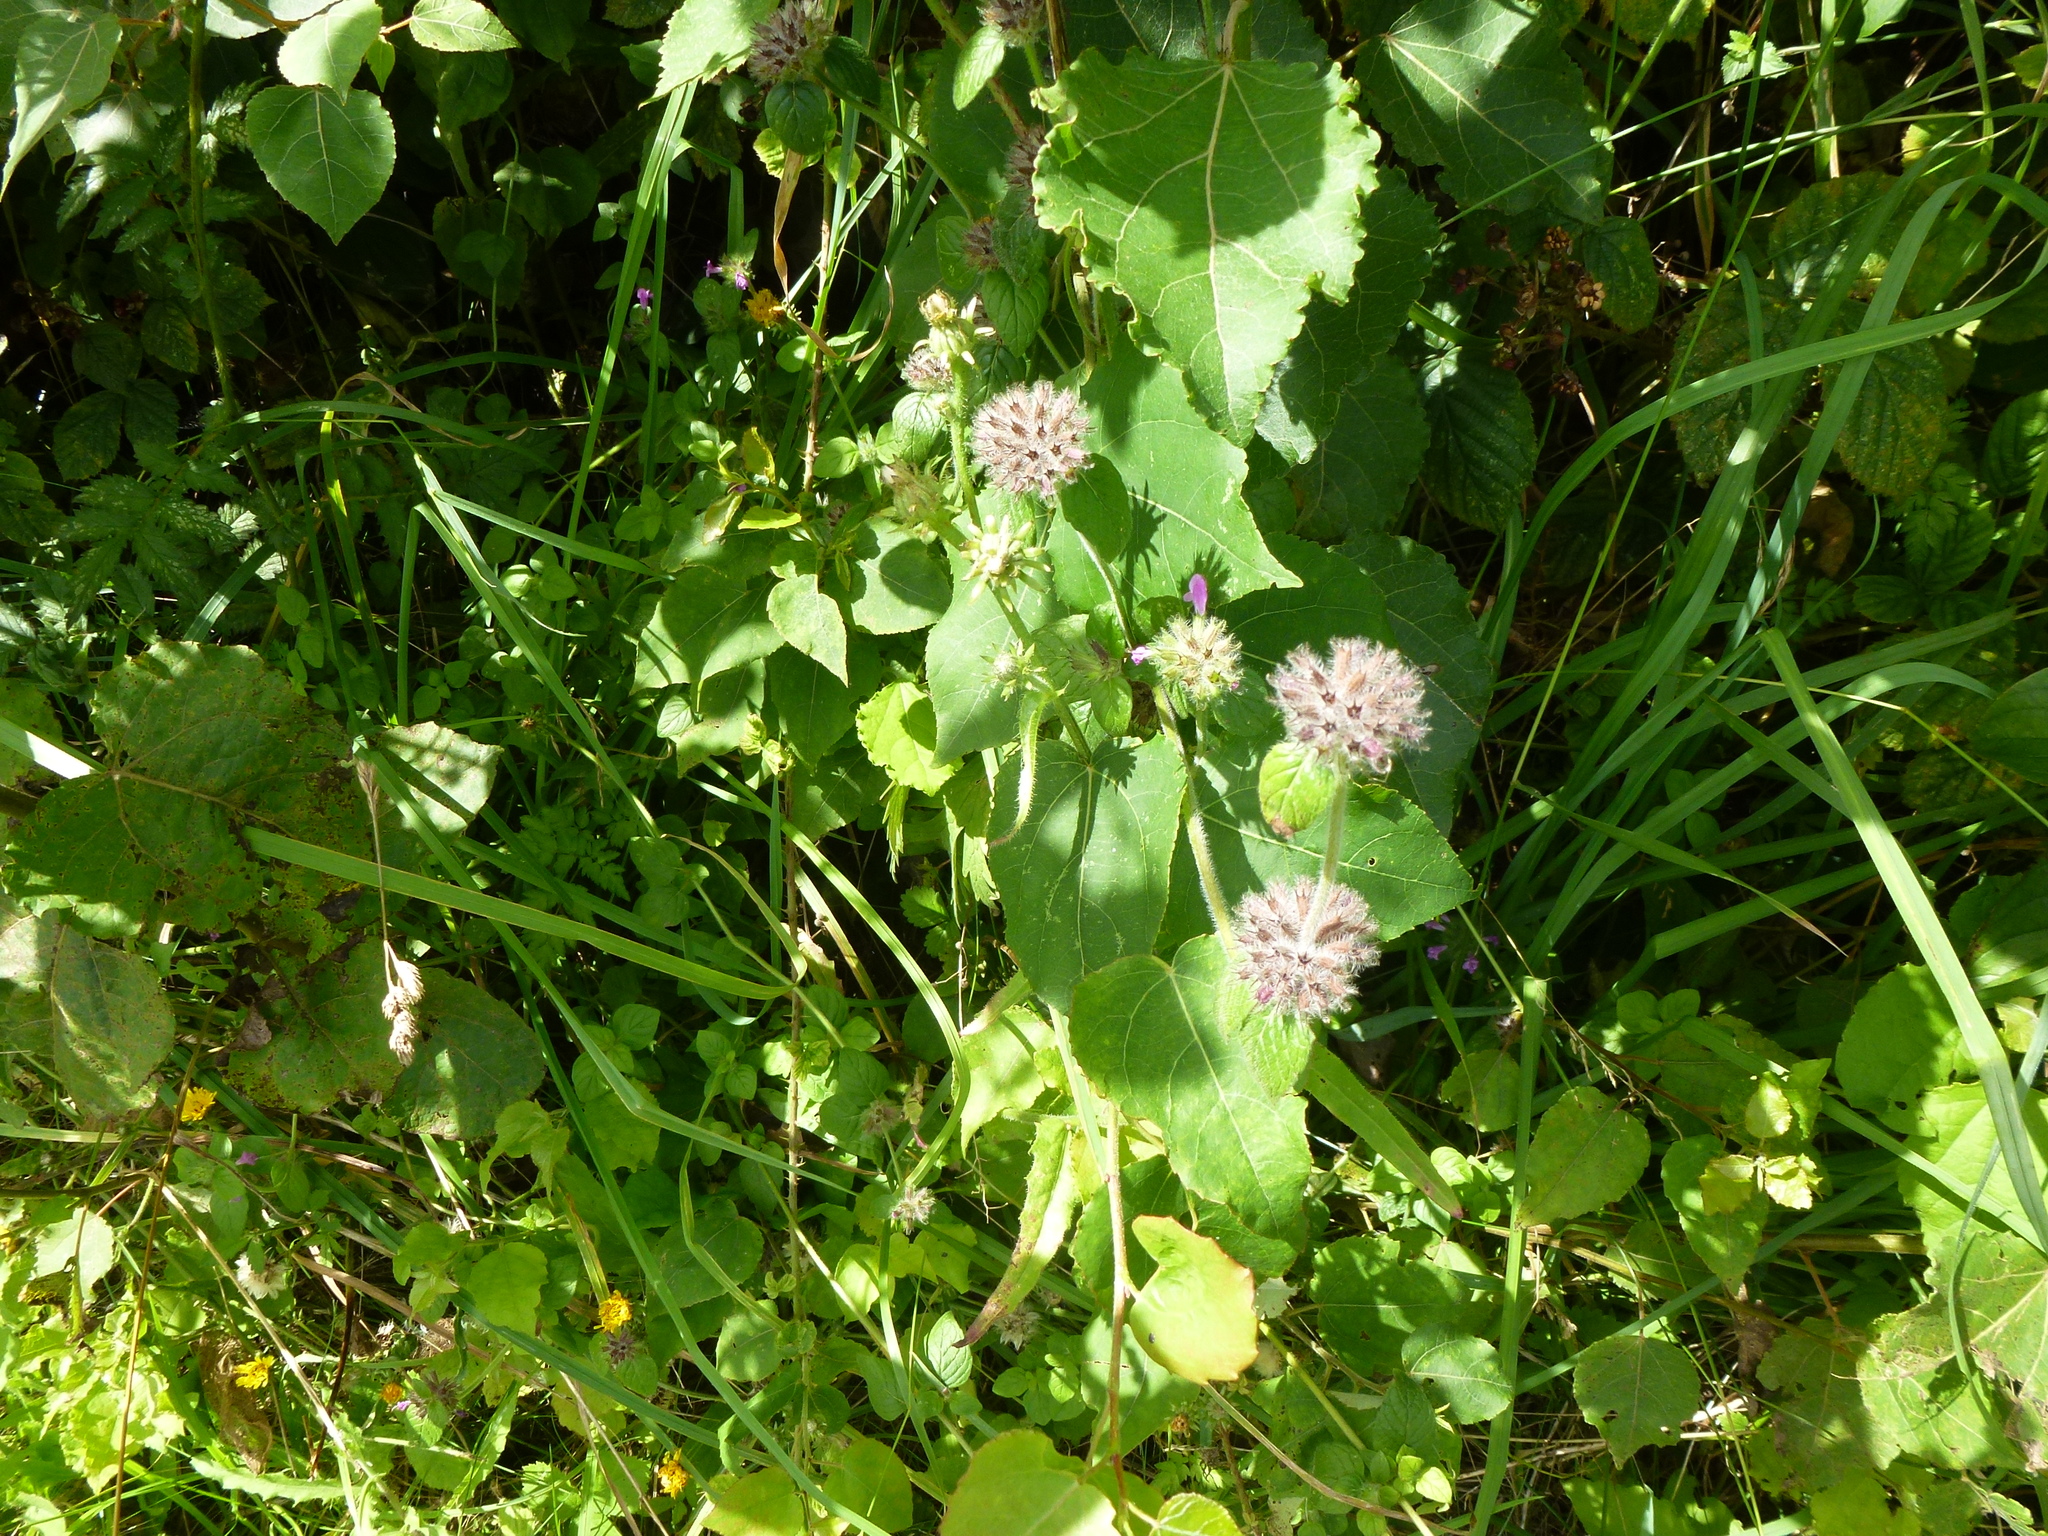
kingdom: Plantae
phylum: Tracheophyta
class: Magnoliopsida
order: Lamiales
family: Lamiaceae
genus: Clinopodium
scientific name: Clinopodium vulgare
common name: Wild basil
